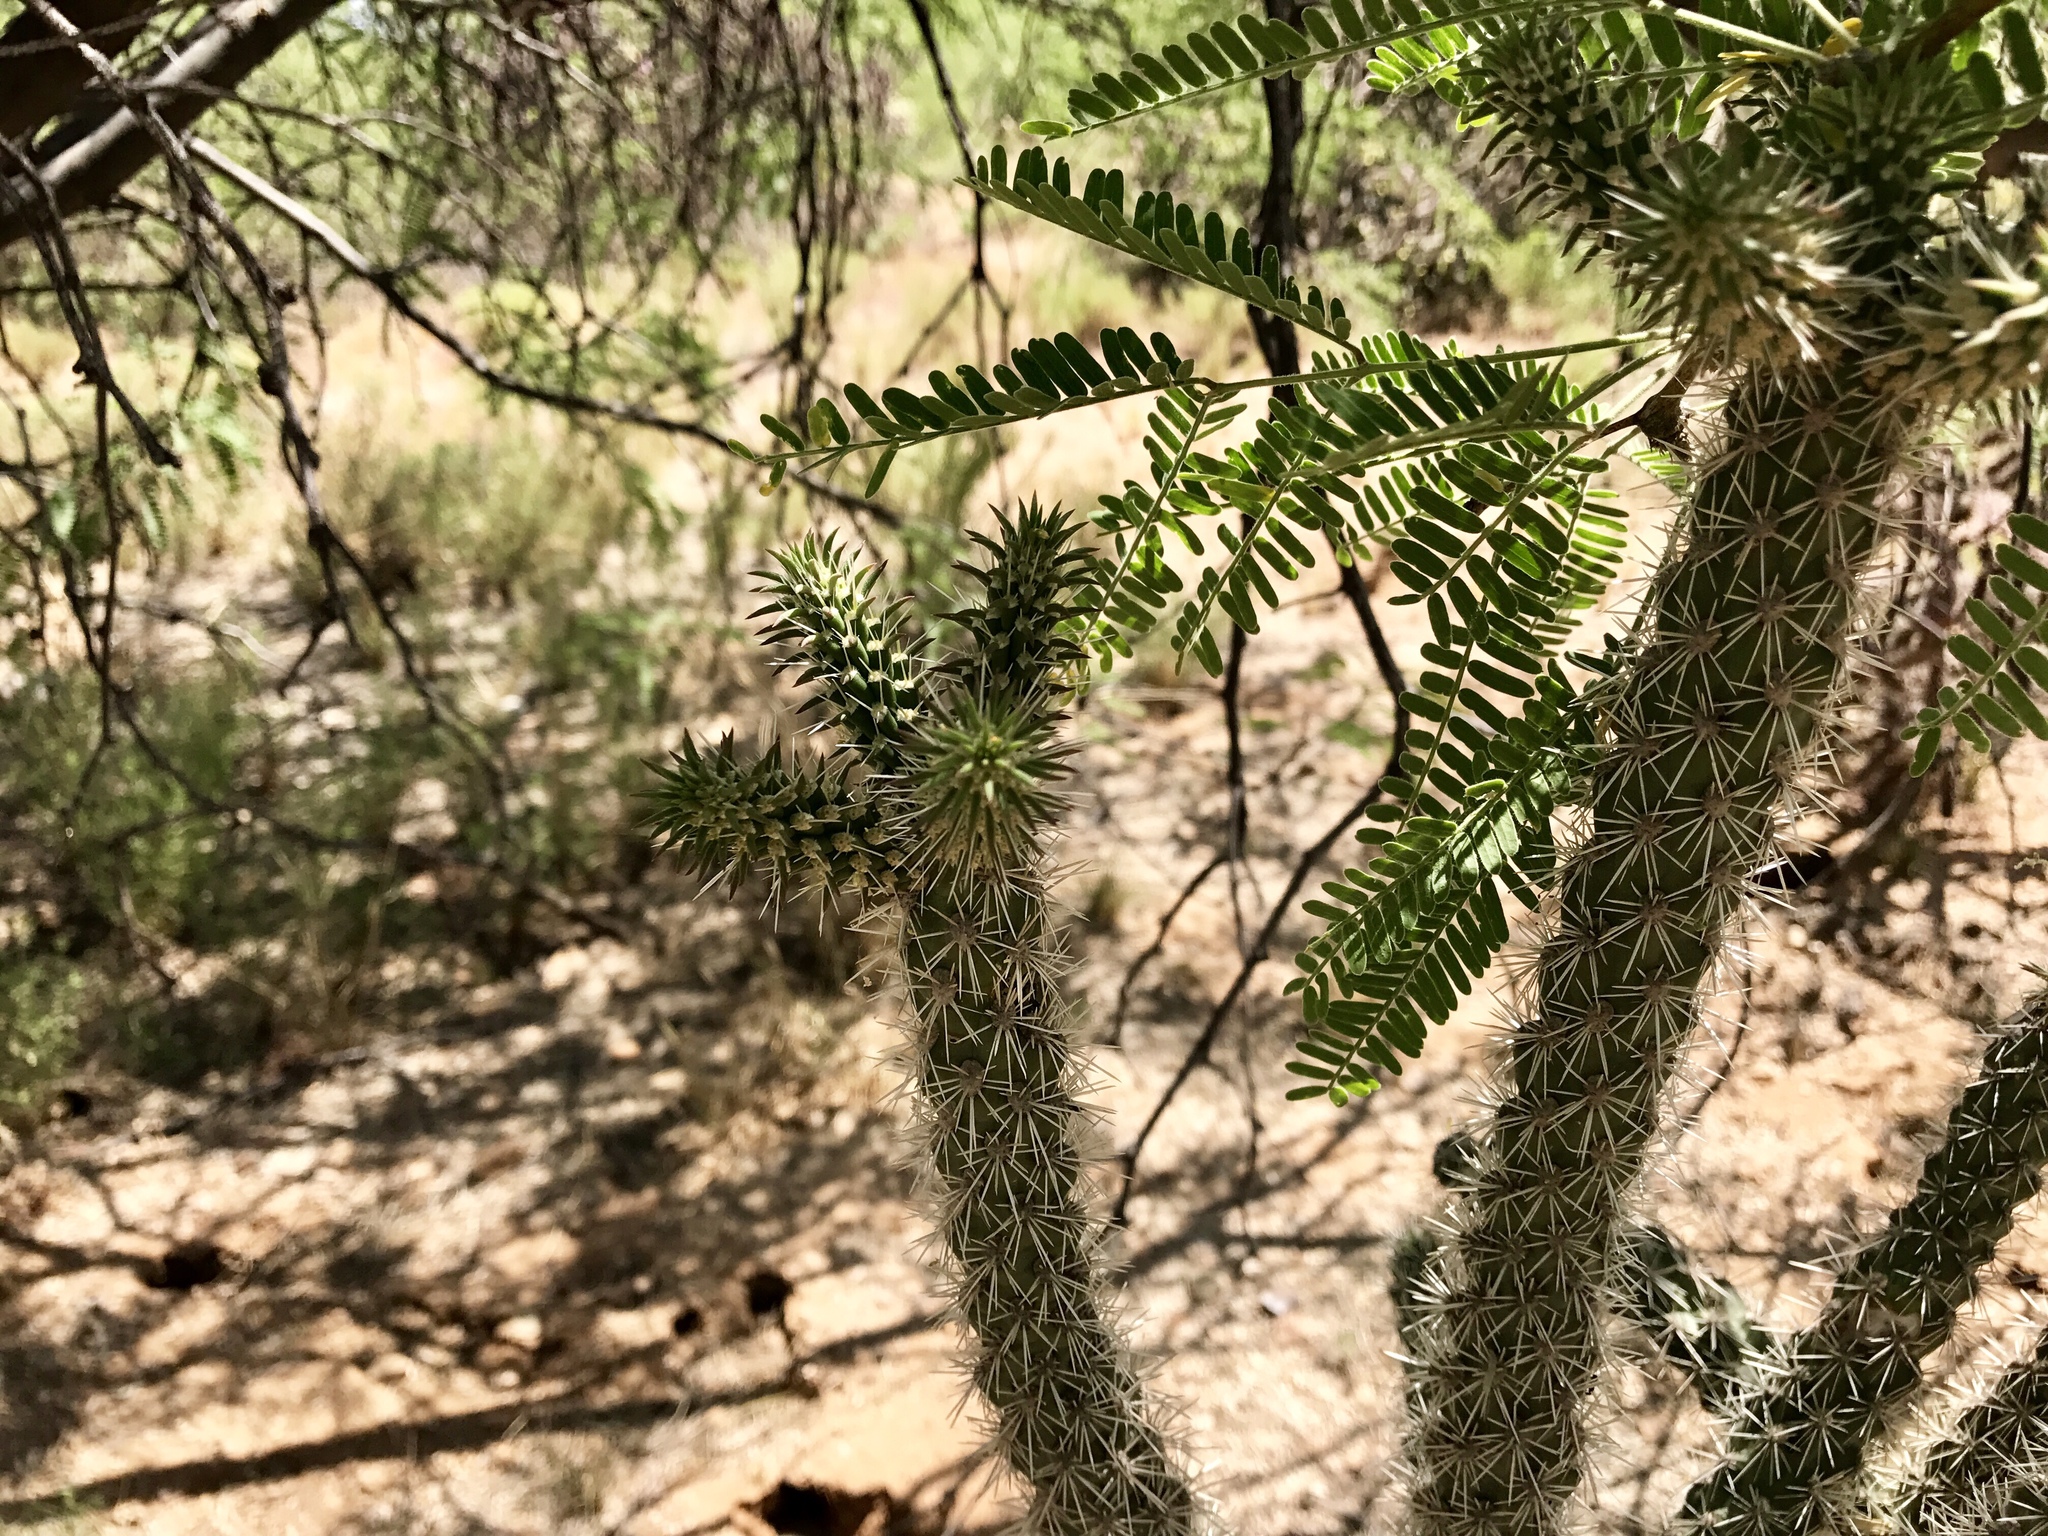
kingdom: Plantae
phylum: Tracheophyta
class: Magnoliopsida
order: Caryophyllales
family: Cactaceae
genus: Cylindropuntia
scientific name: Cylindropuntia imbricata
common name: Candelabrum cactus
